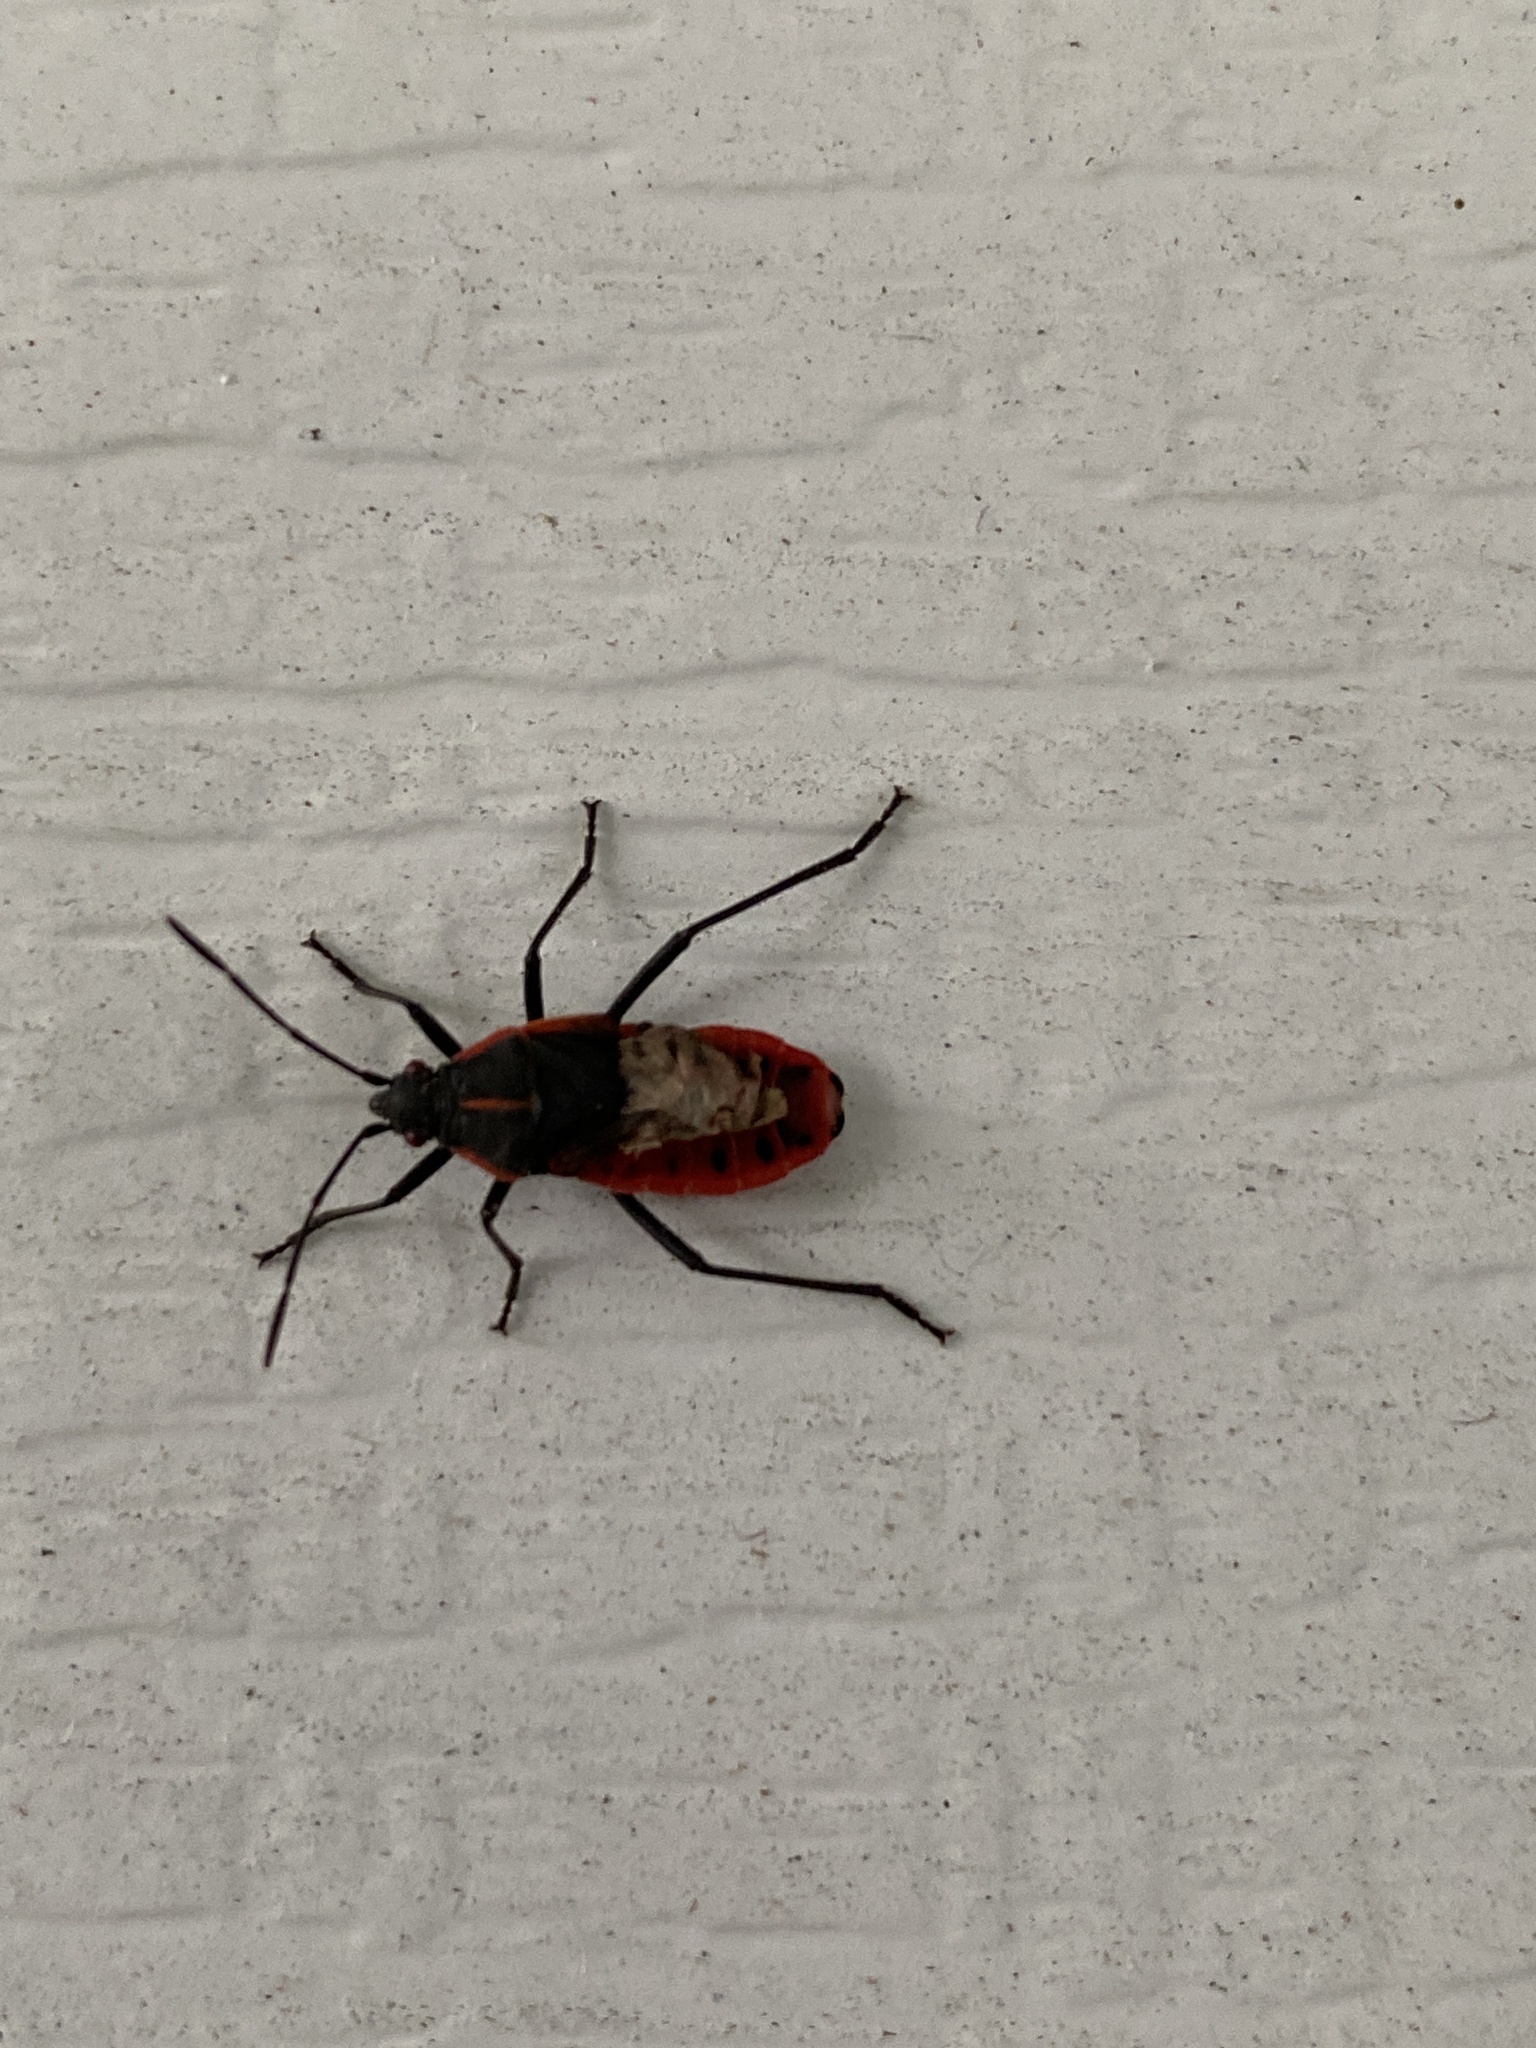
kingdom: Animalia
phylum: Arthropoda
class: Insecta
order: Hemiptera
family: Rhopalidae
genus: Boisea
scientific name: Boisea trivittata
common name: Boxelder bug
